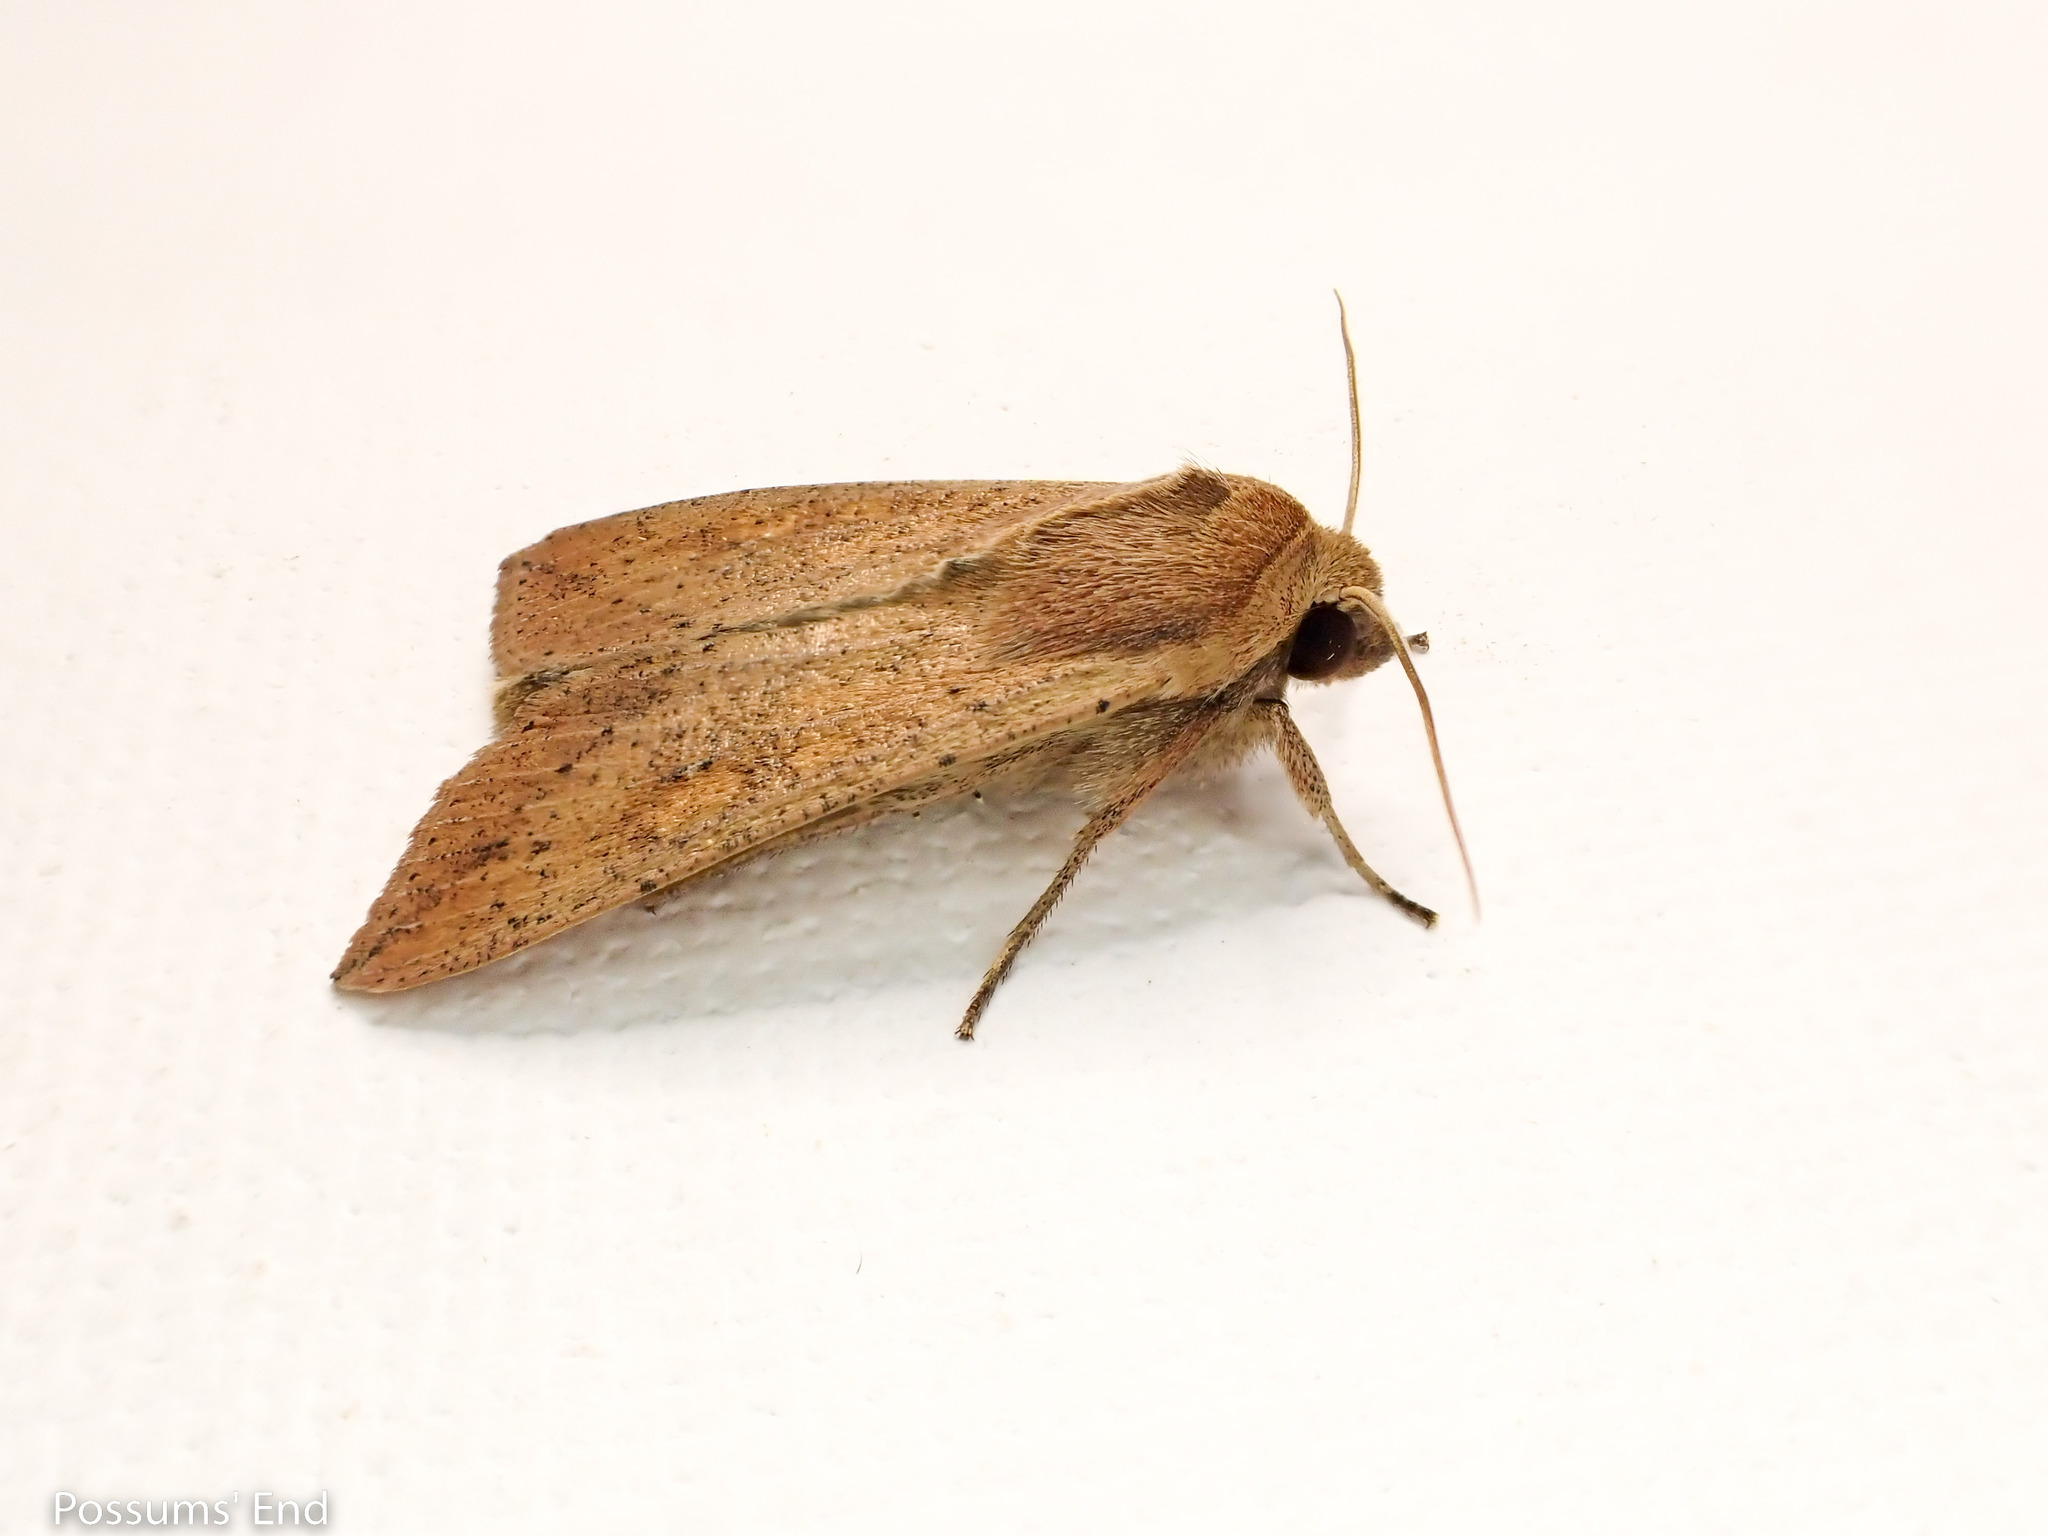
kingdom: Animalia
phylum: Arthropoda
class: Insecta
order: Lepidoptera
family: Noctuidae
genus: Mythimna
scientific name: Mythimna separata
